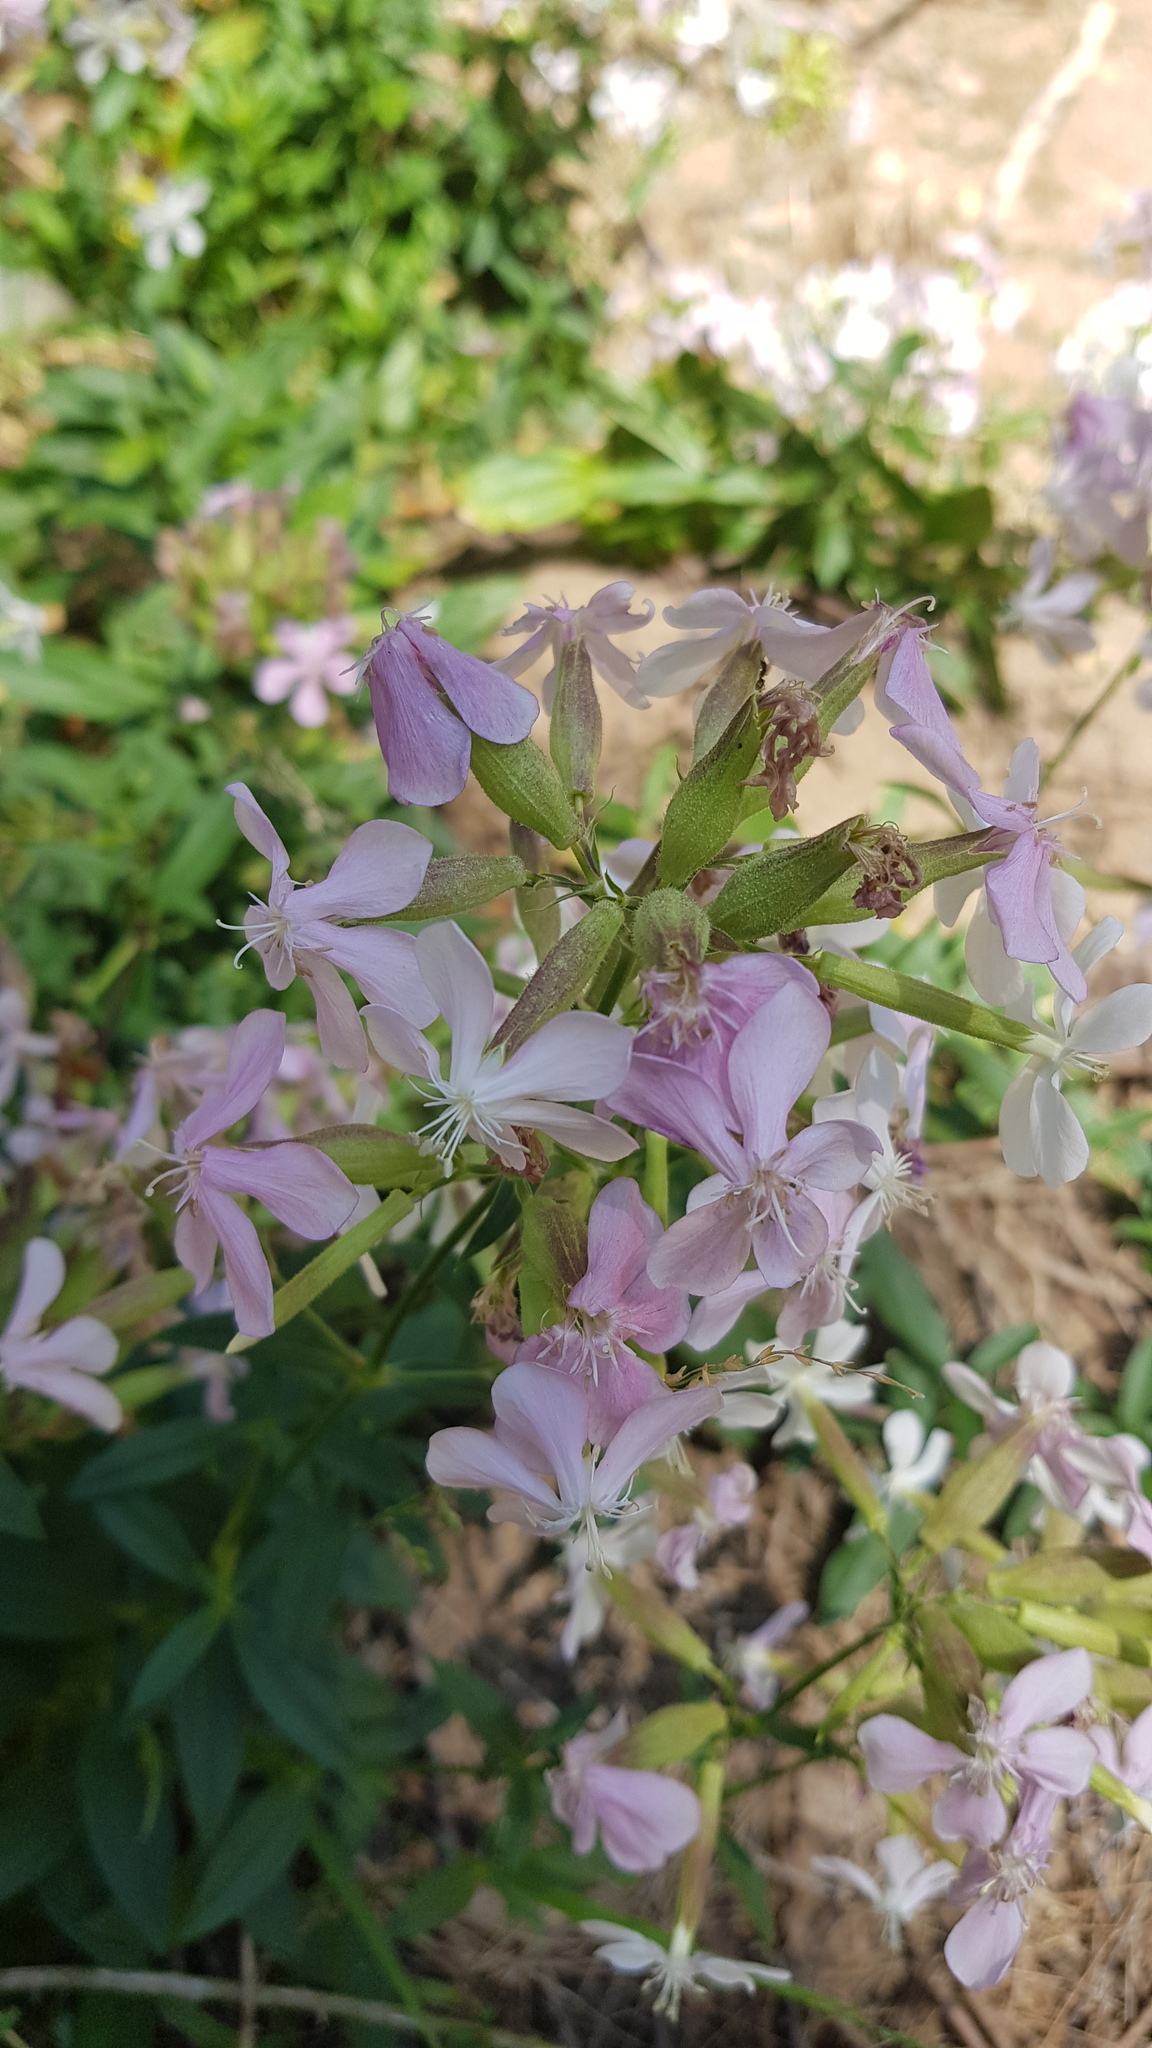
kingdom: Plantae
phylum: Tracheophyta
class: Magnoliopsida
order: Caryophyllales
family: Caryophyllaceae
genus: Saponaria
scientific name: Saponaria officinalis
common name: Soapwort
